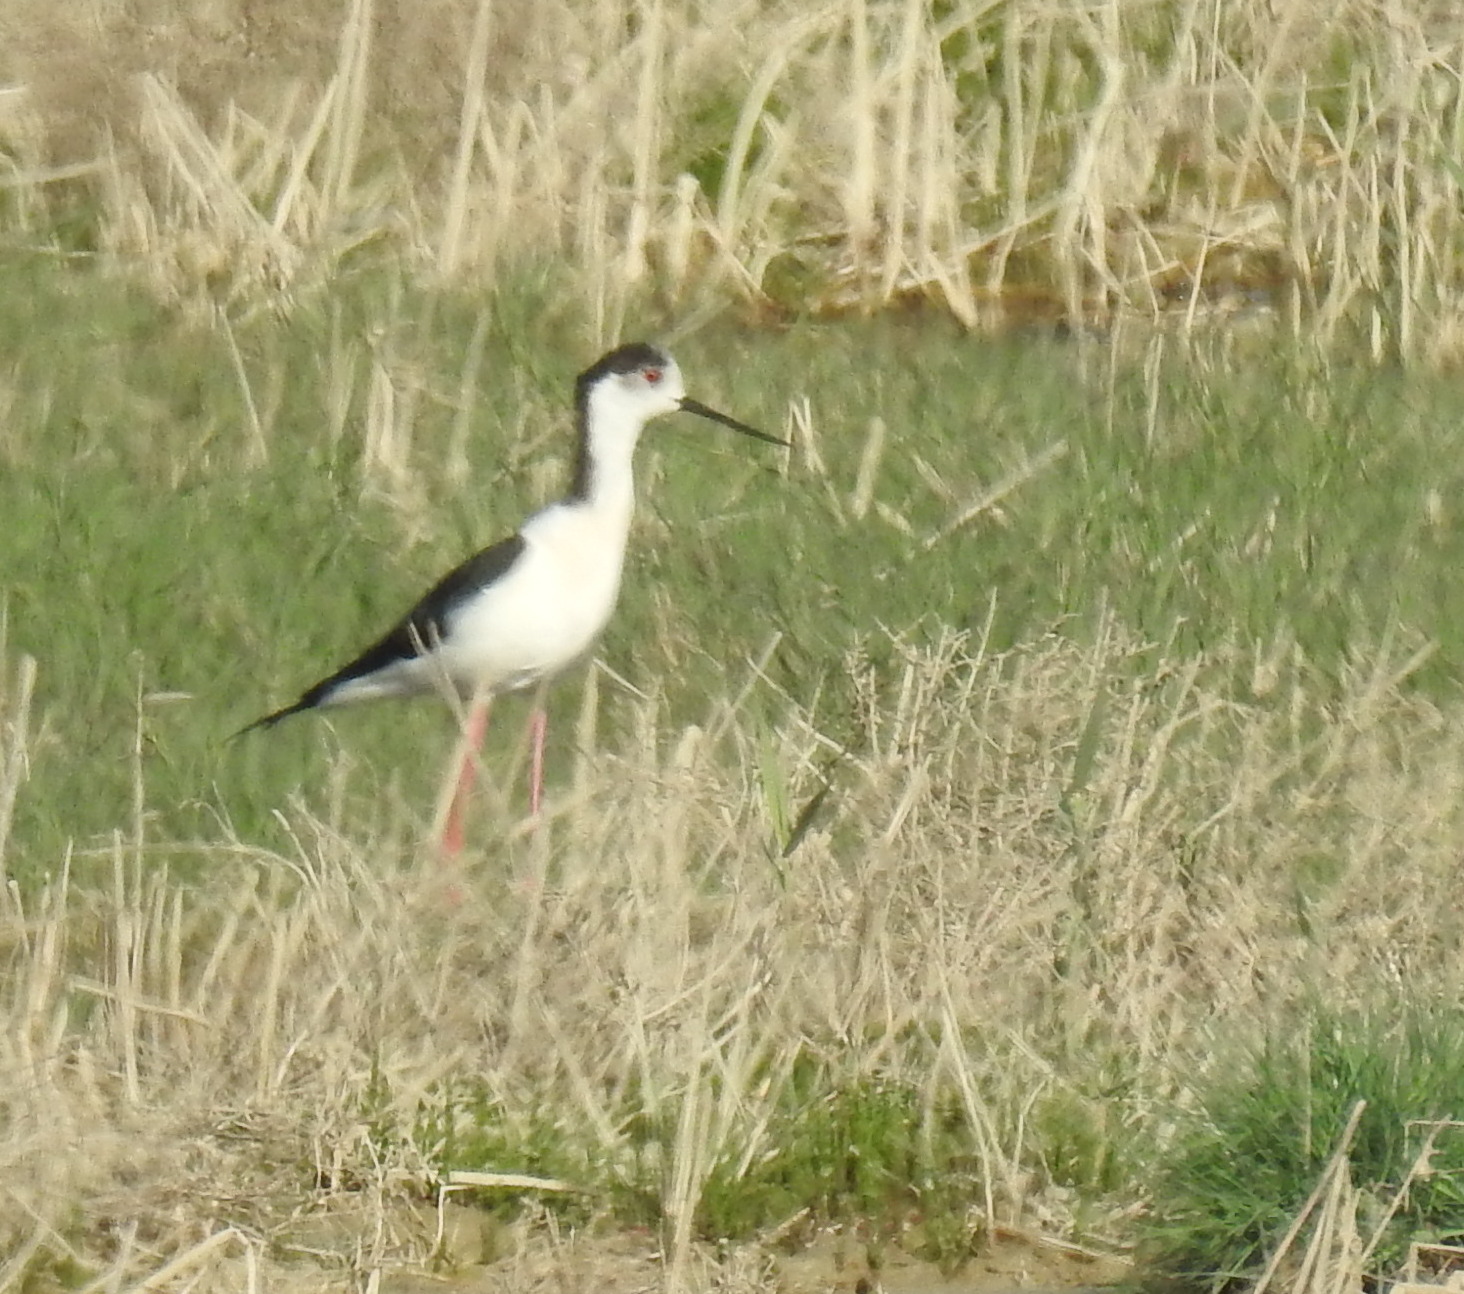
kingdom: Animalia
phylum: Chordata
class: Aves
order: Charadriiformes
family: Recurvirostridae
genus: Himantopus
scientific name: Himantopus himantopus
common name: Black-winged stilt
